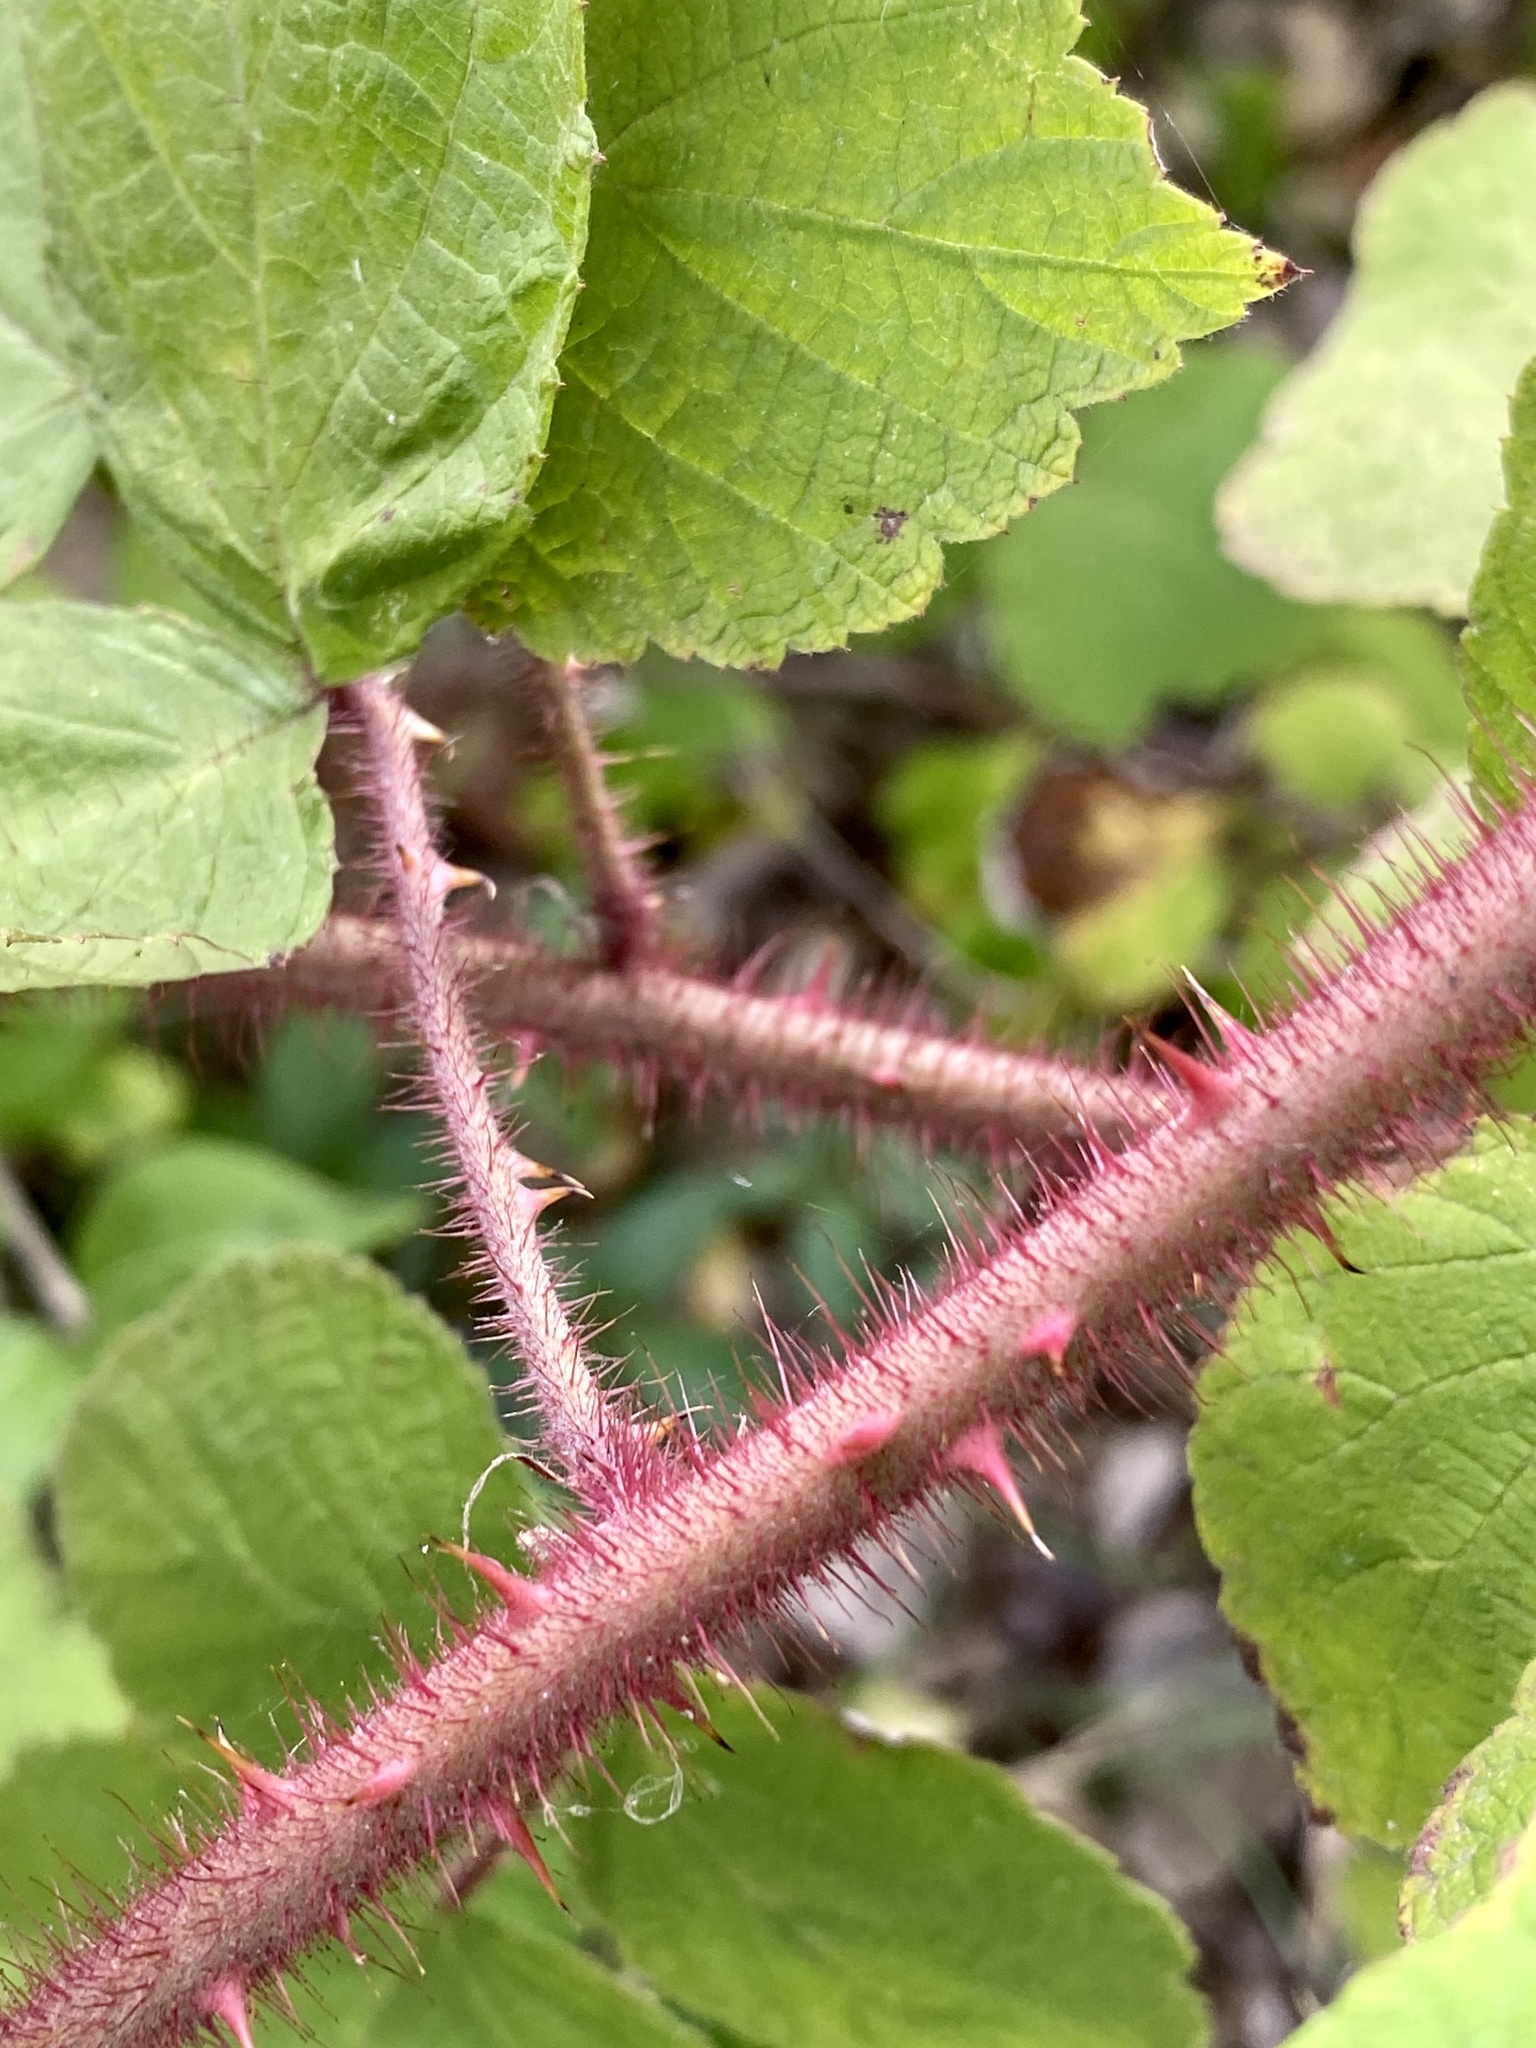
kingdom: Plantae
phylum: Tracheophyta
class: Magnoliopsida
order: Rosales
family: Rosaceae
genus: Rubus
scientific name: Rubus phoenicolasius
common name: Japanese wineberry
